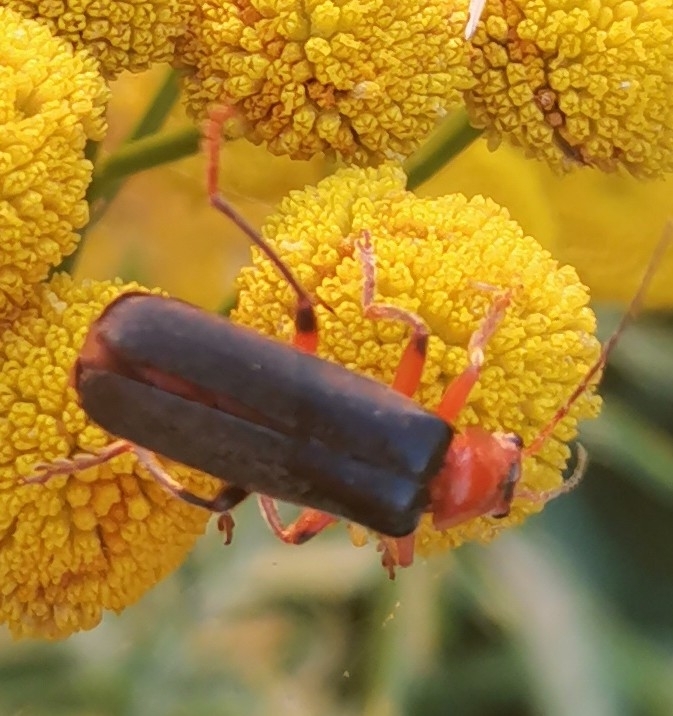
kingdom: Animalia
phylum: Arthropoda
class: Insecta
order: Coleoptera
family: Cantharidae
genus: Cantharis
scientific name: Cantharis livida
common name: Livid soldier beetle
